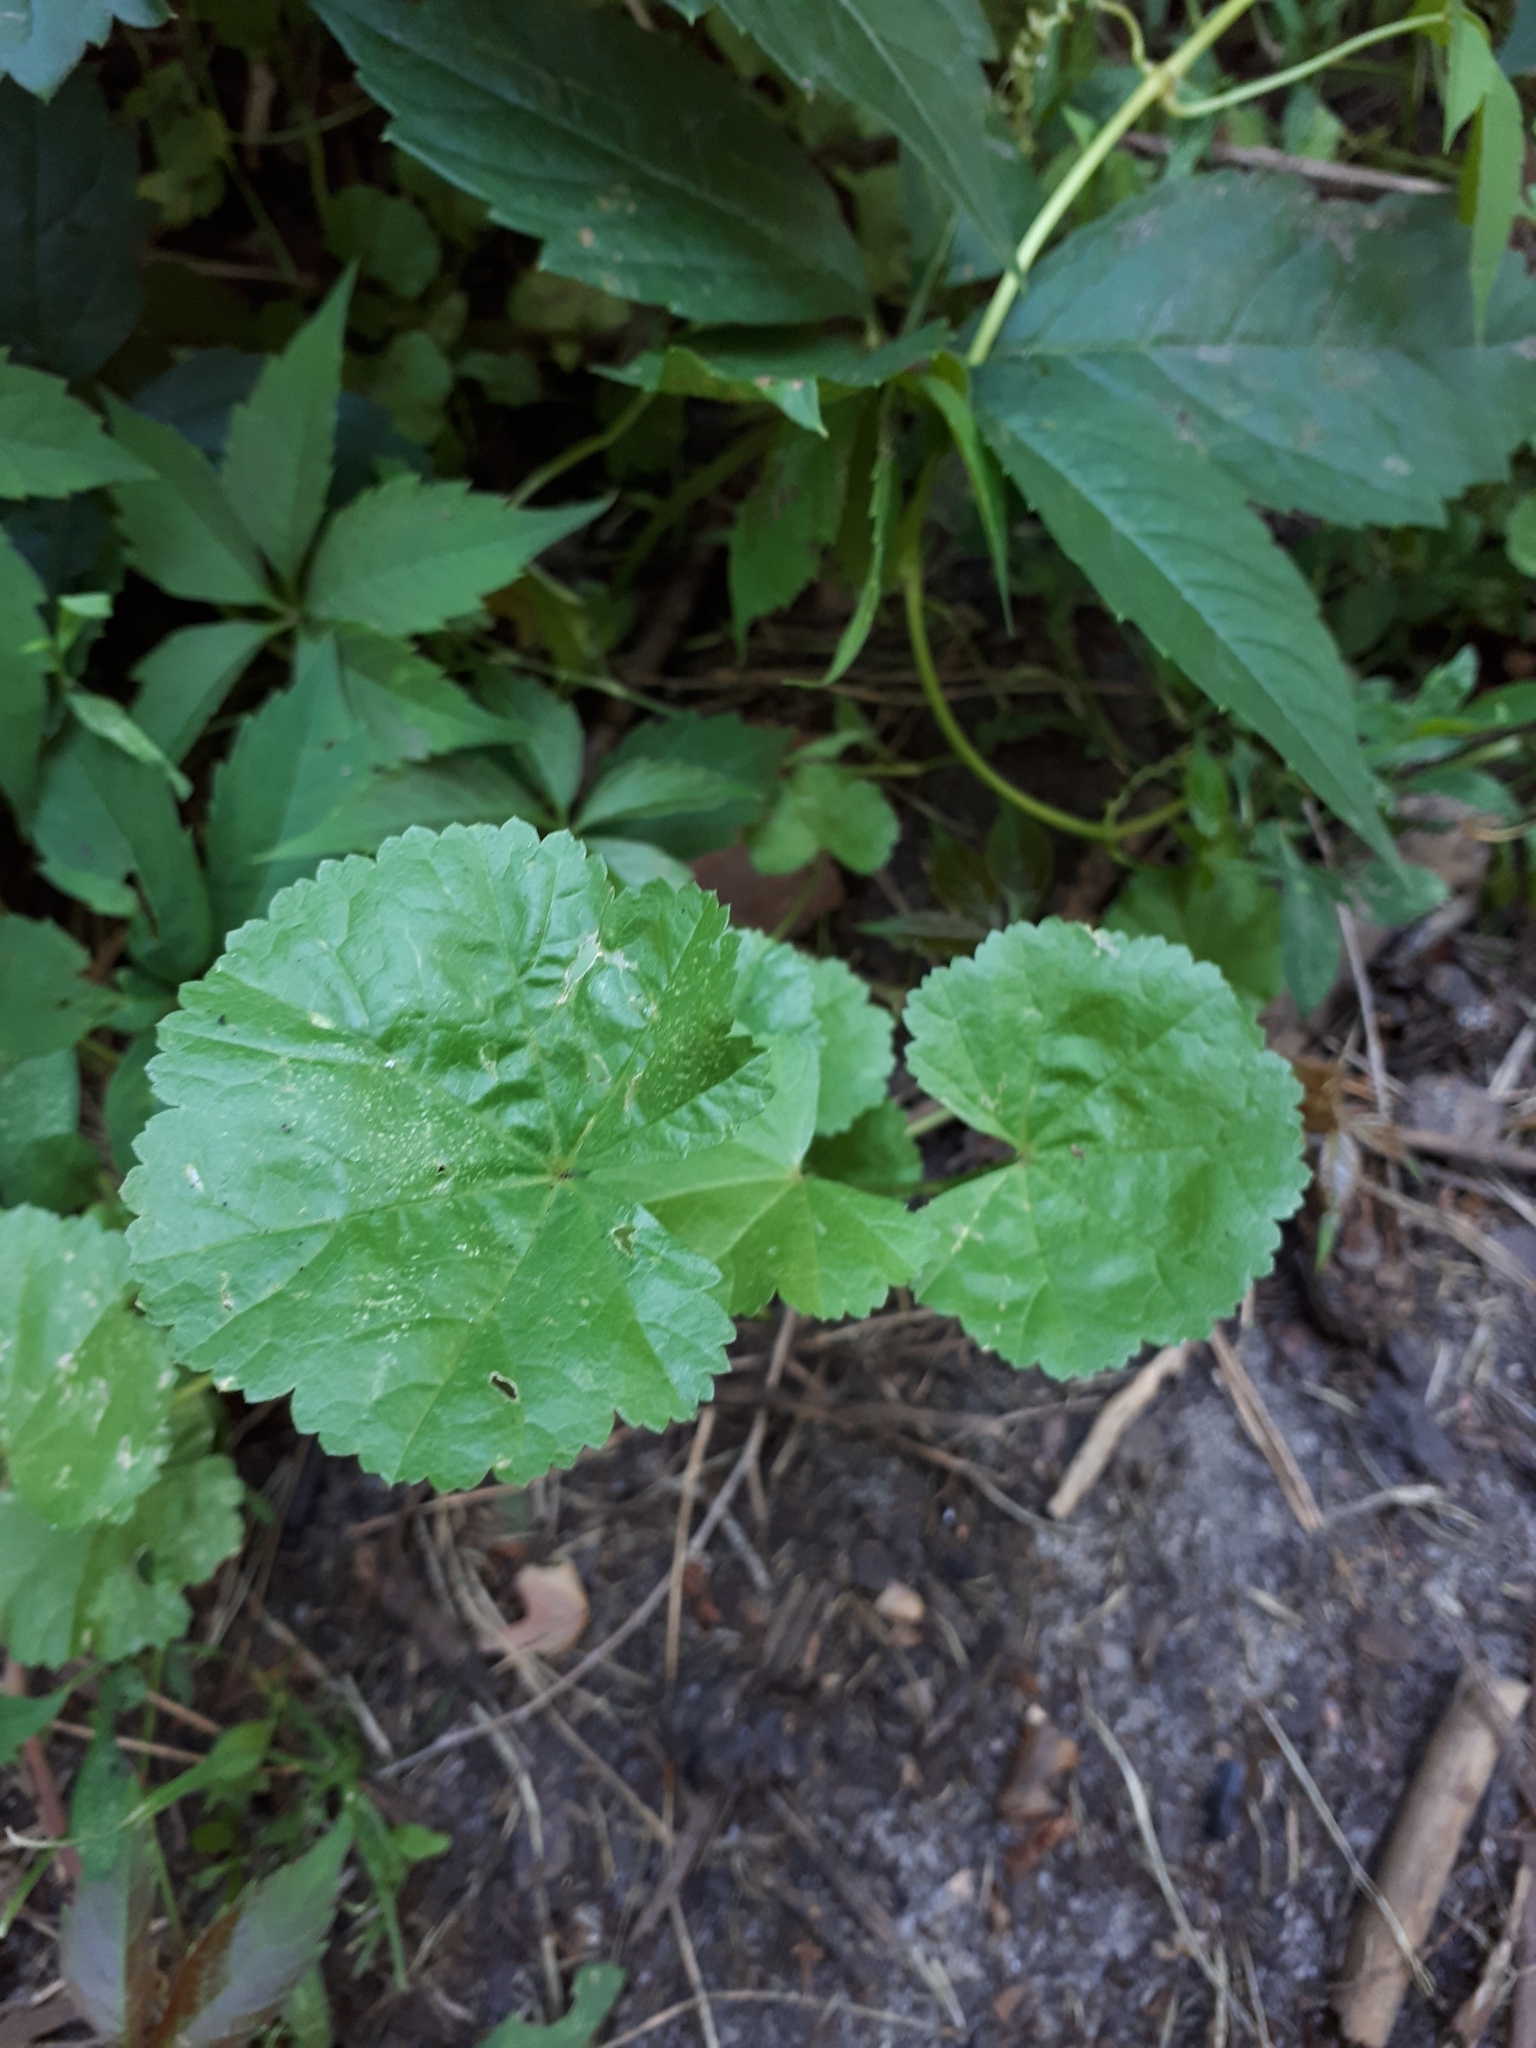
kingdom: Plantae
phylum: Tracheophyta
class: Magnoliopsida
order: Malvales
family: Malvaceae
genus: Malva
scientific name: Malva pusilla
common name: Small mallow
